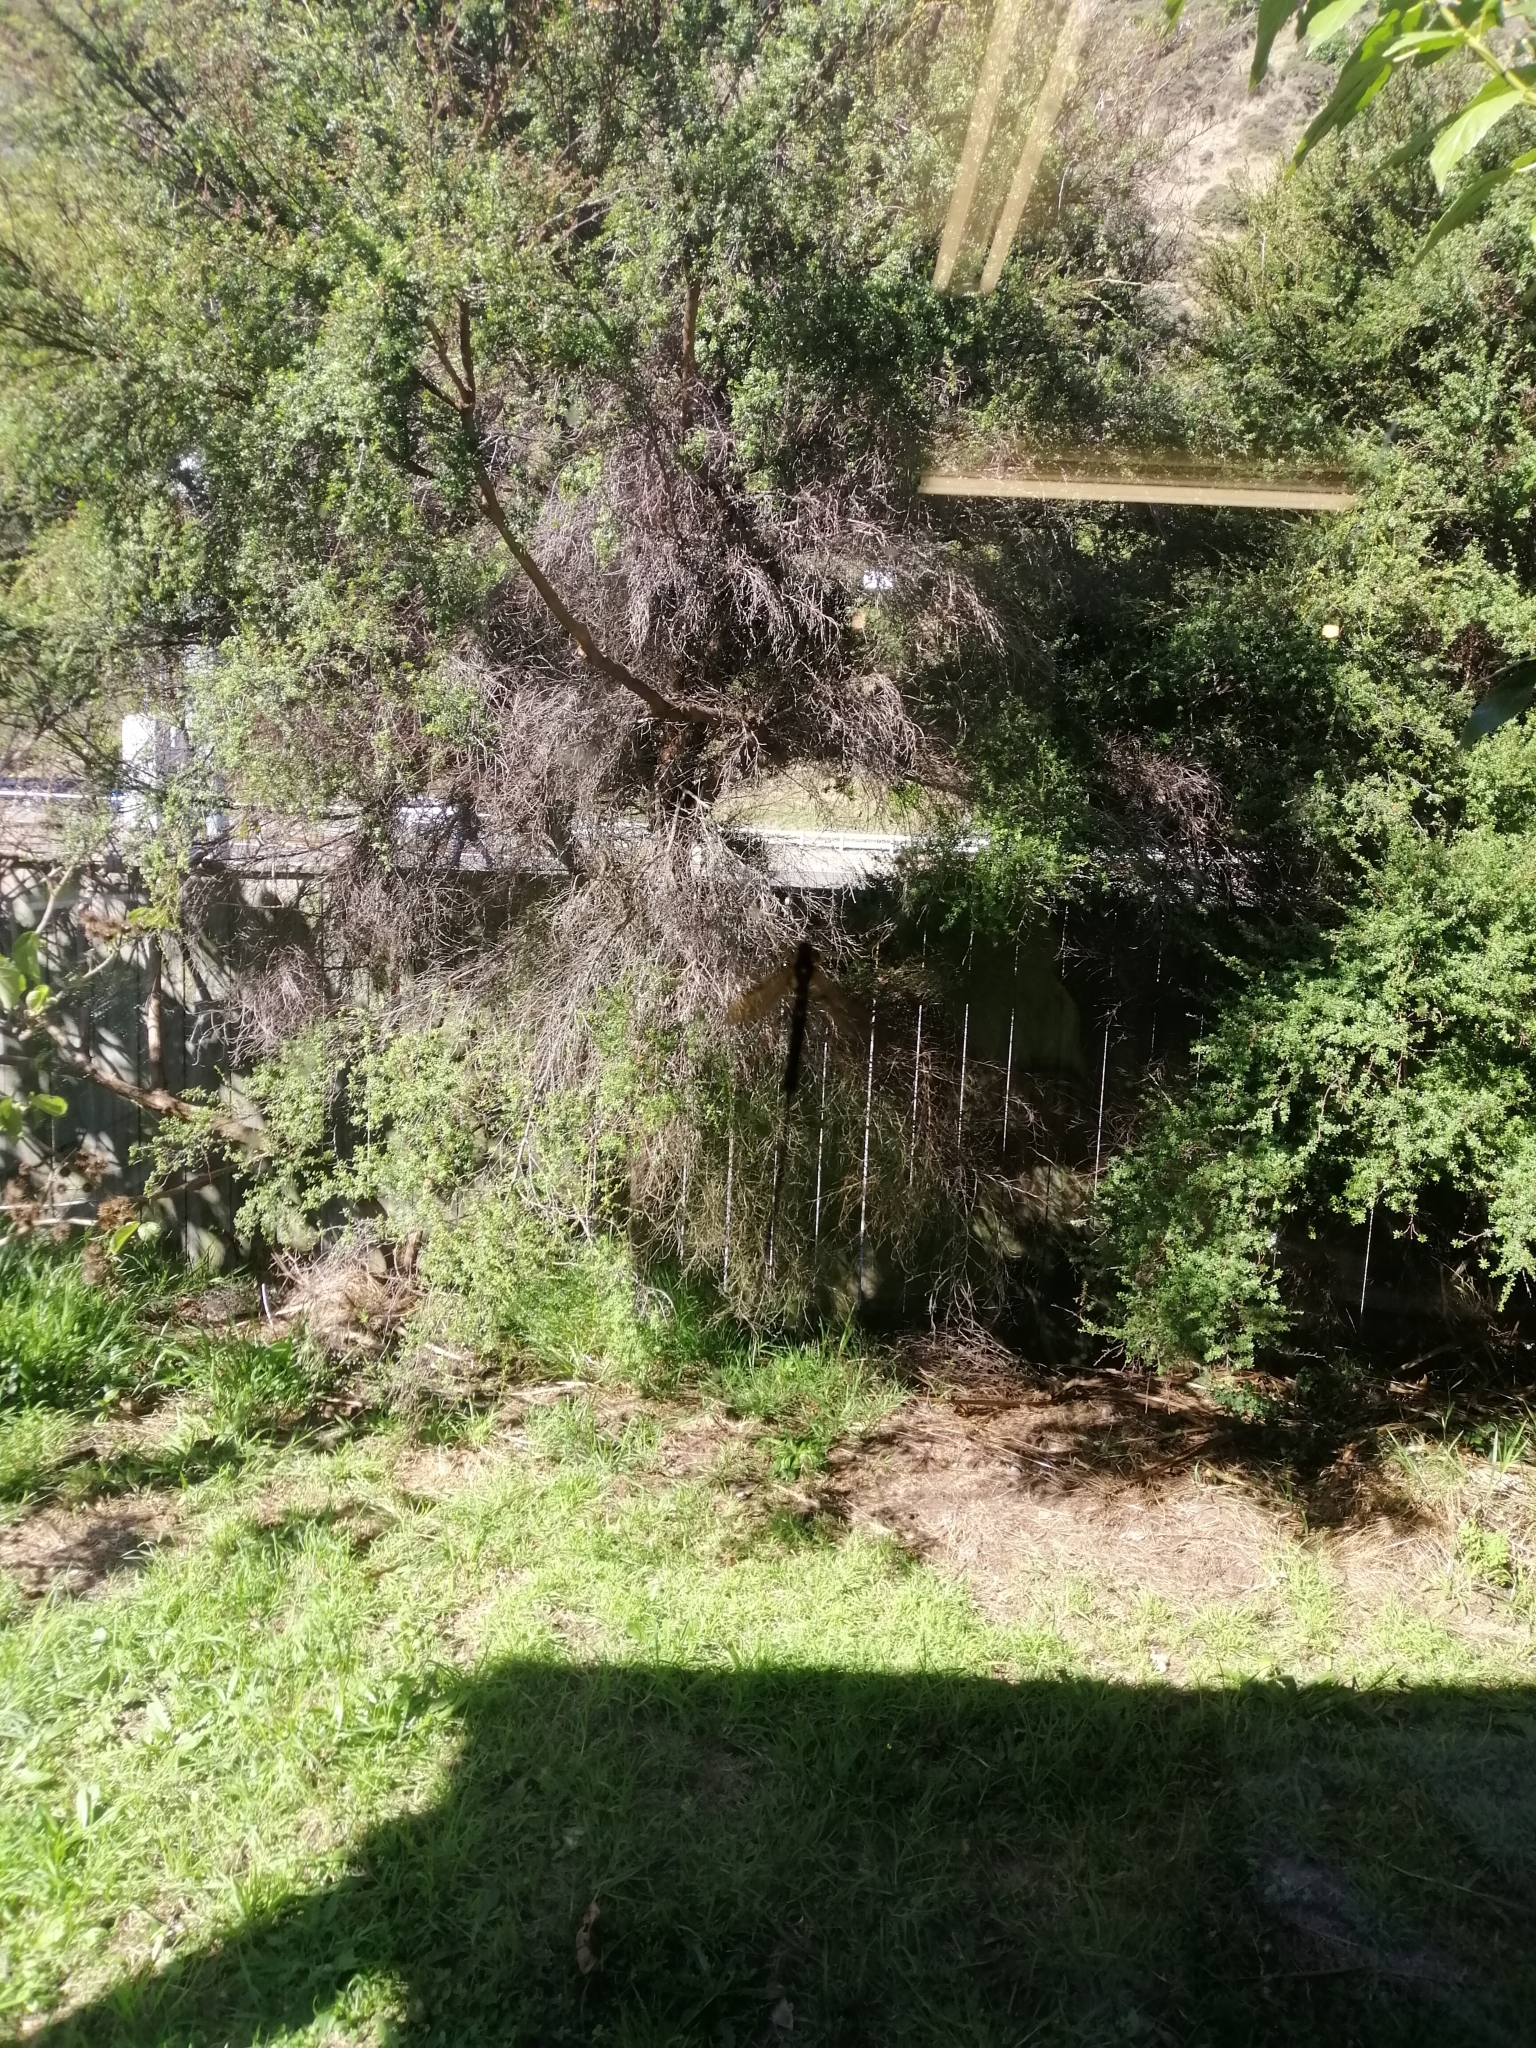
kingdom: Animalia
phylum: Arthropoda
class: Insecta
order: Hymenoptera
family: Ichneumonidae
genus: Megarhyssa
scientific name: Megarhyssa nortoni
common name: Norton's giant ichneumonid wasp
